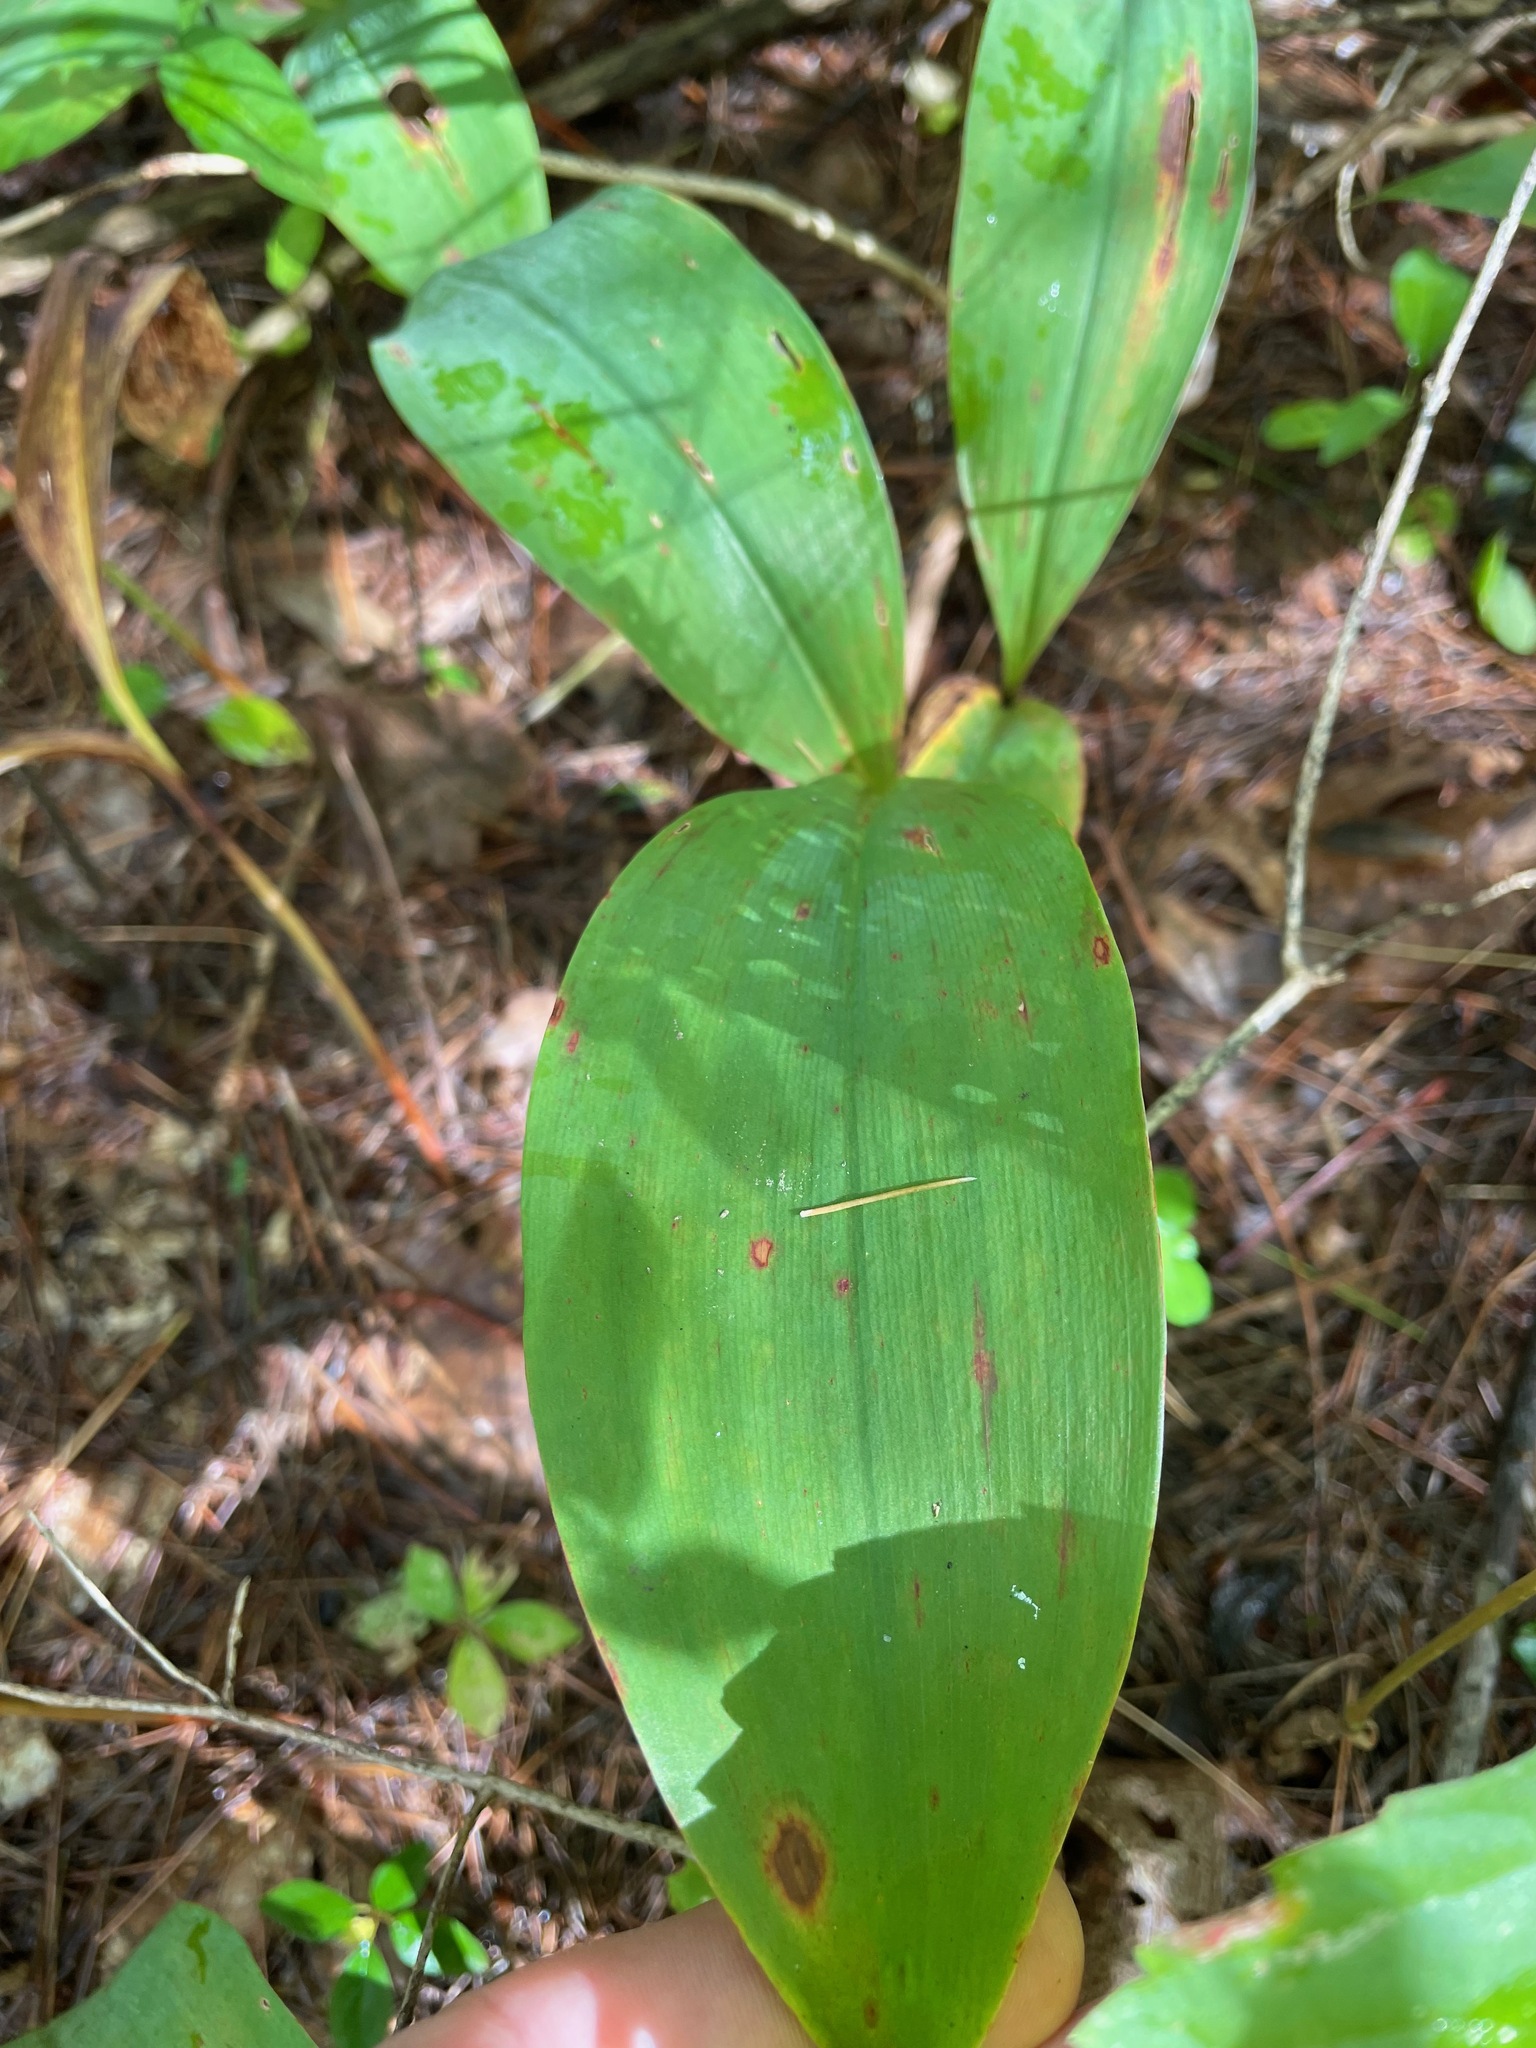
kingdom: Plantae
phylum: Tracheophyta
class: Liliopsida
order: Asparagales
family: Asparagaceae
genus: Convallaria
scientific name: Convallaria majalis
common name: Lily-of-the-valley
